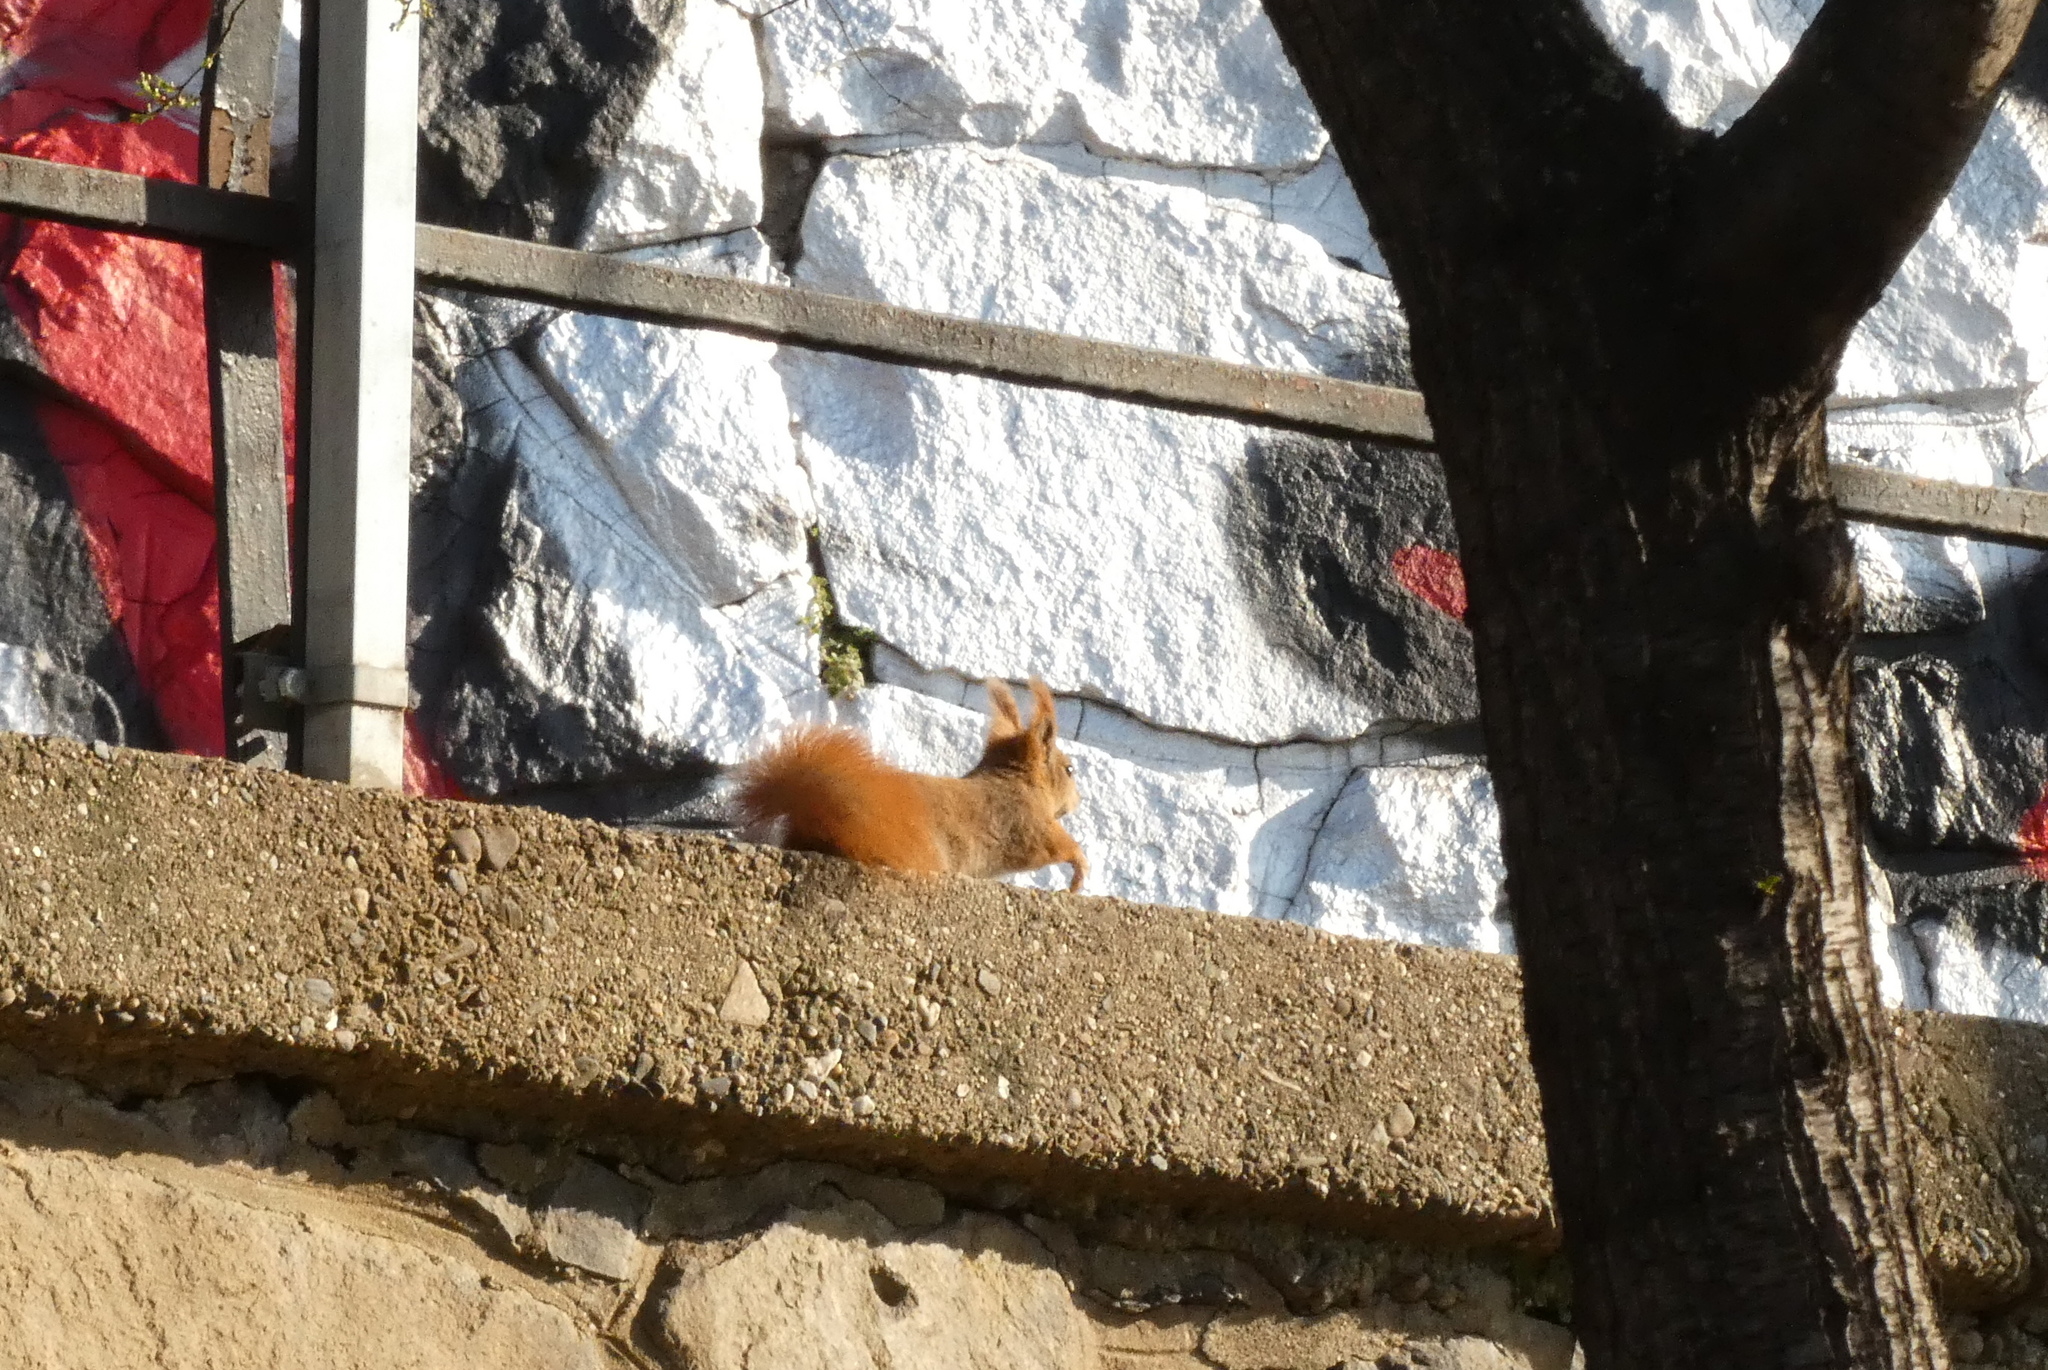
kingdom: Animalia
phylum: Chordata
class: Mammalia
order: Rodentia
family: Sciuridae
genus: Sciurus
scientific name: Sciurus vulgaris
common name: Eurasian red squirrel
